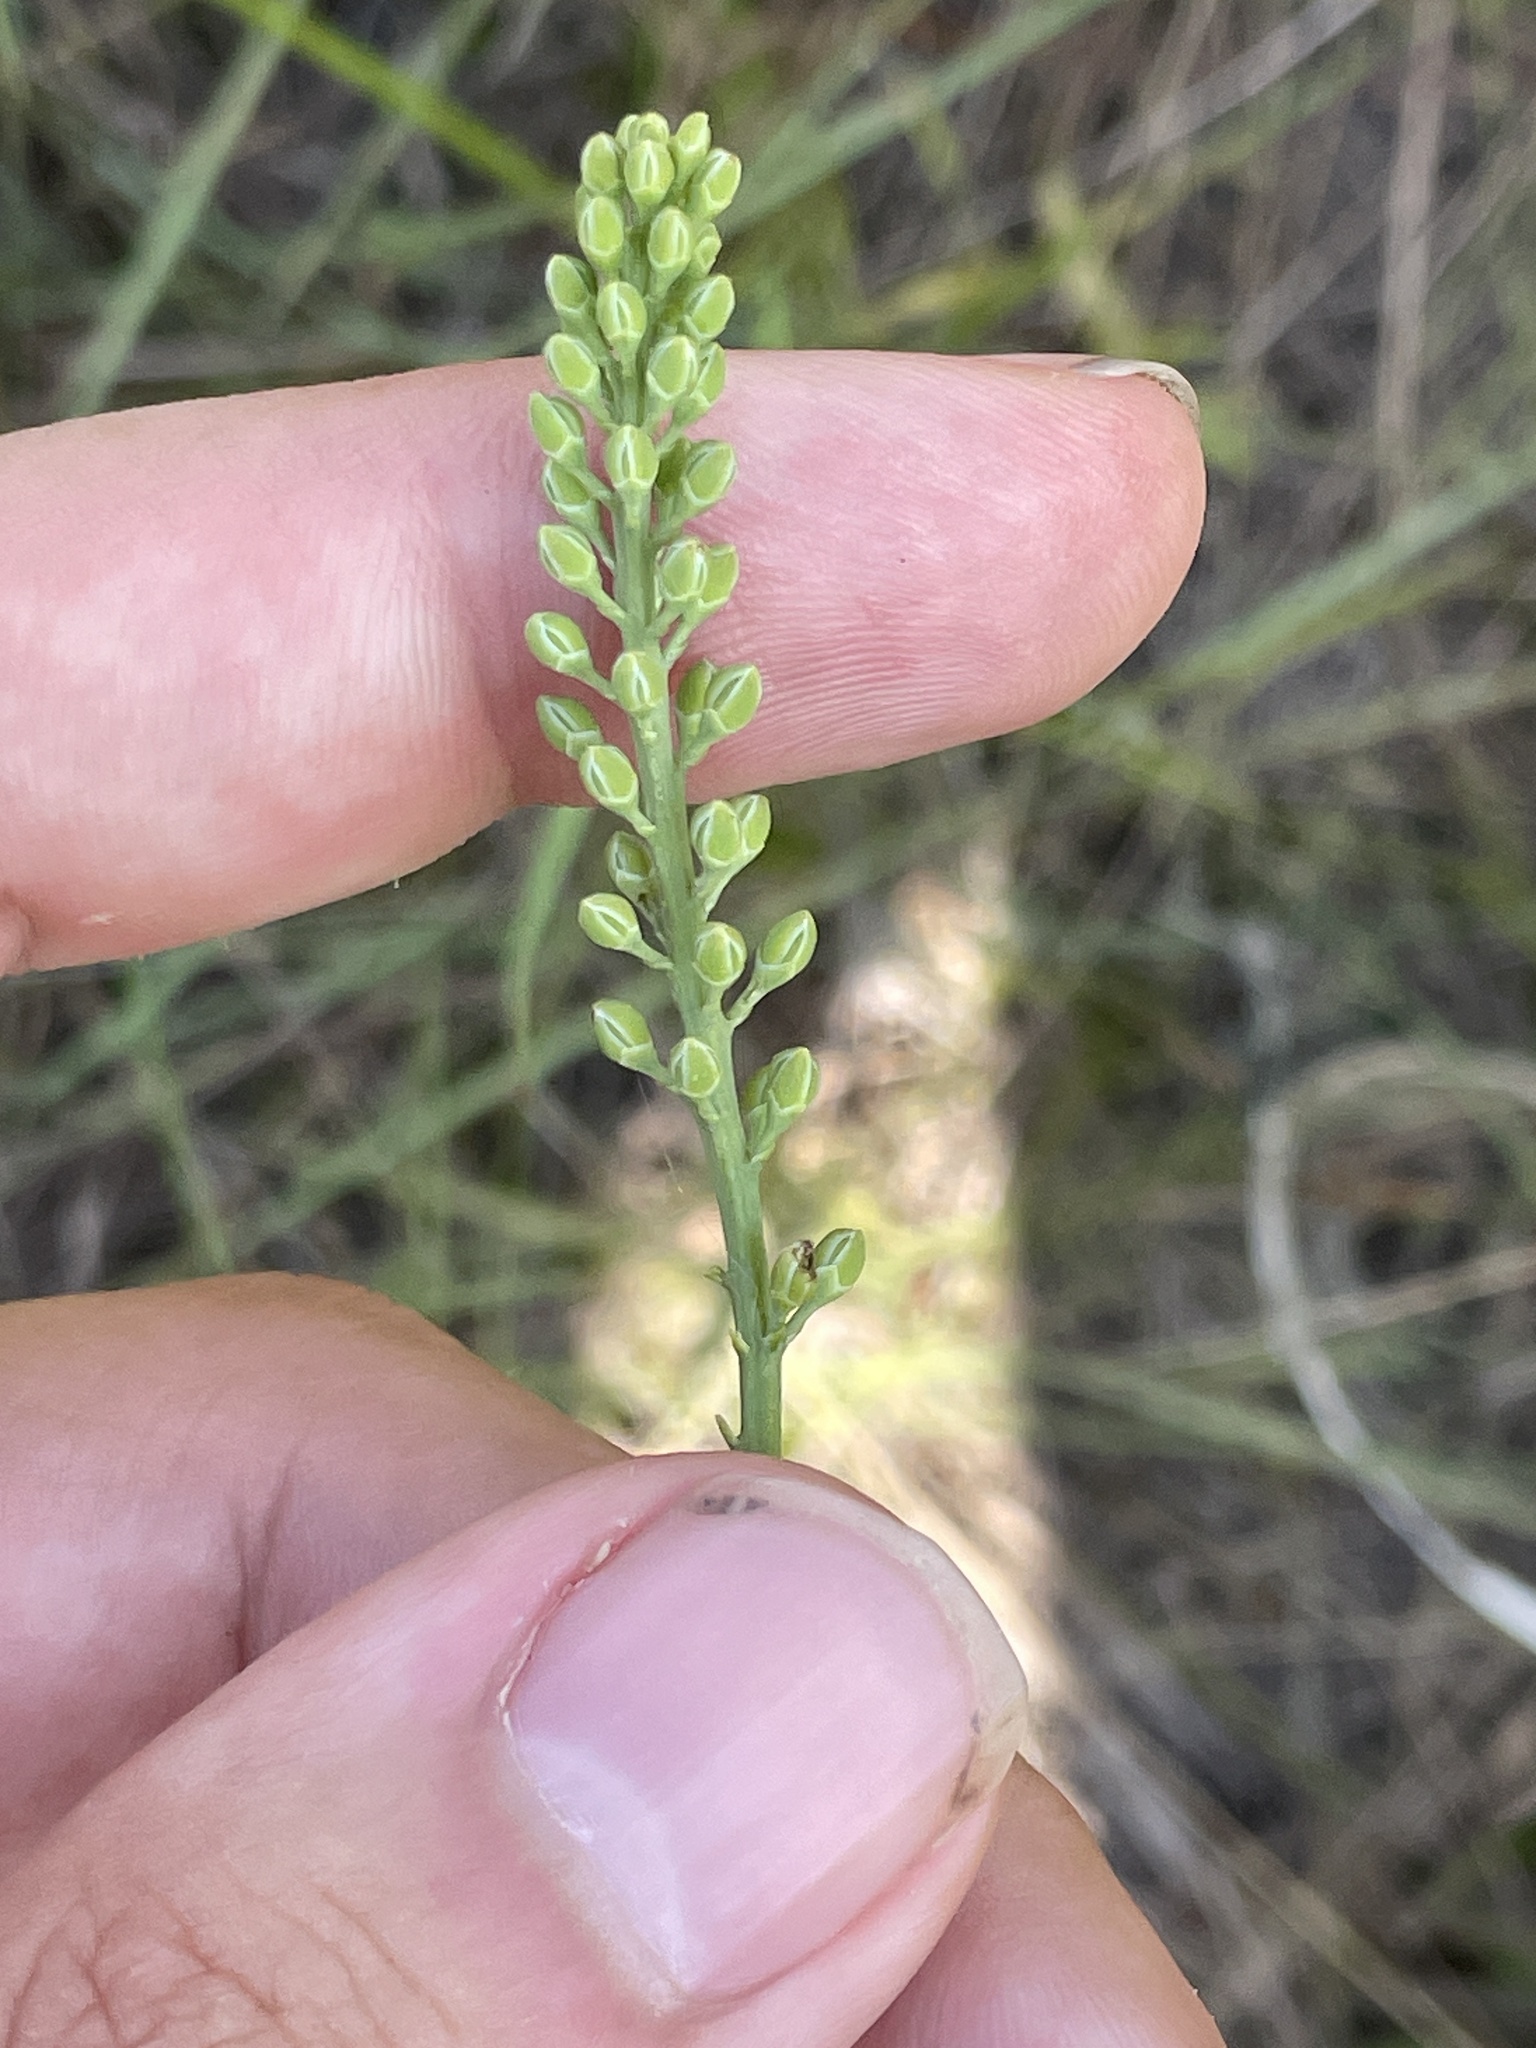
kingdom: Plantae
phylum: Tracheophyta
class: Liliopsida
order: Alismatales
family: Tofieldiaceae
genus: Tofieldia
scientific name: Tofieldia glabra
